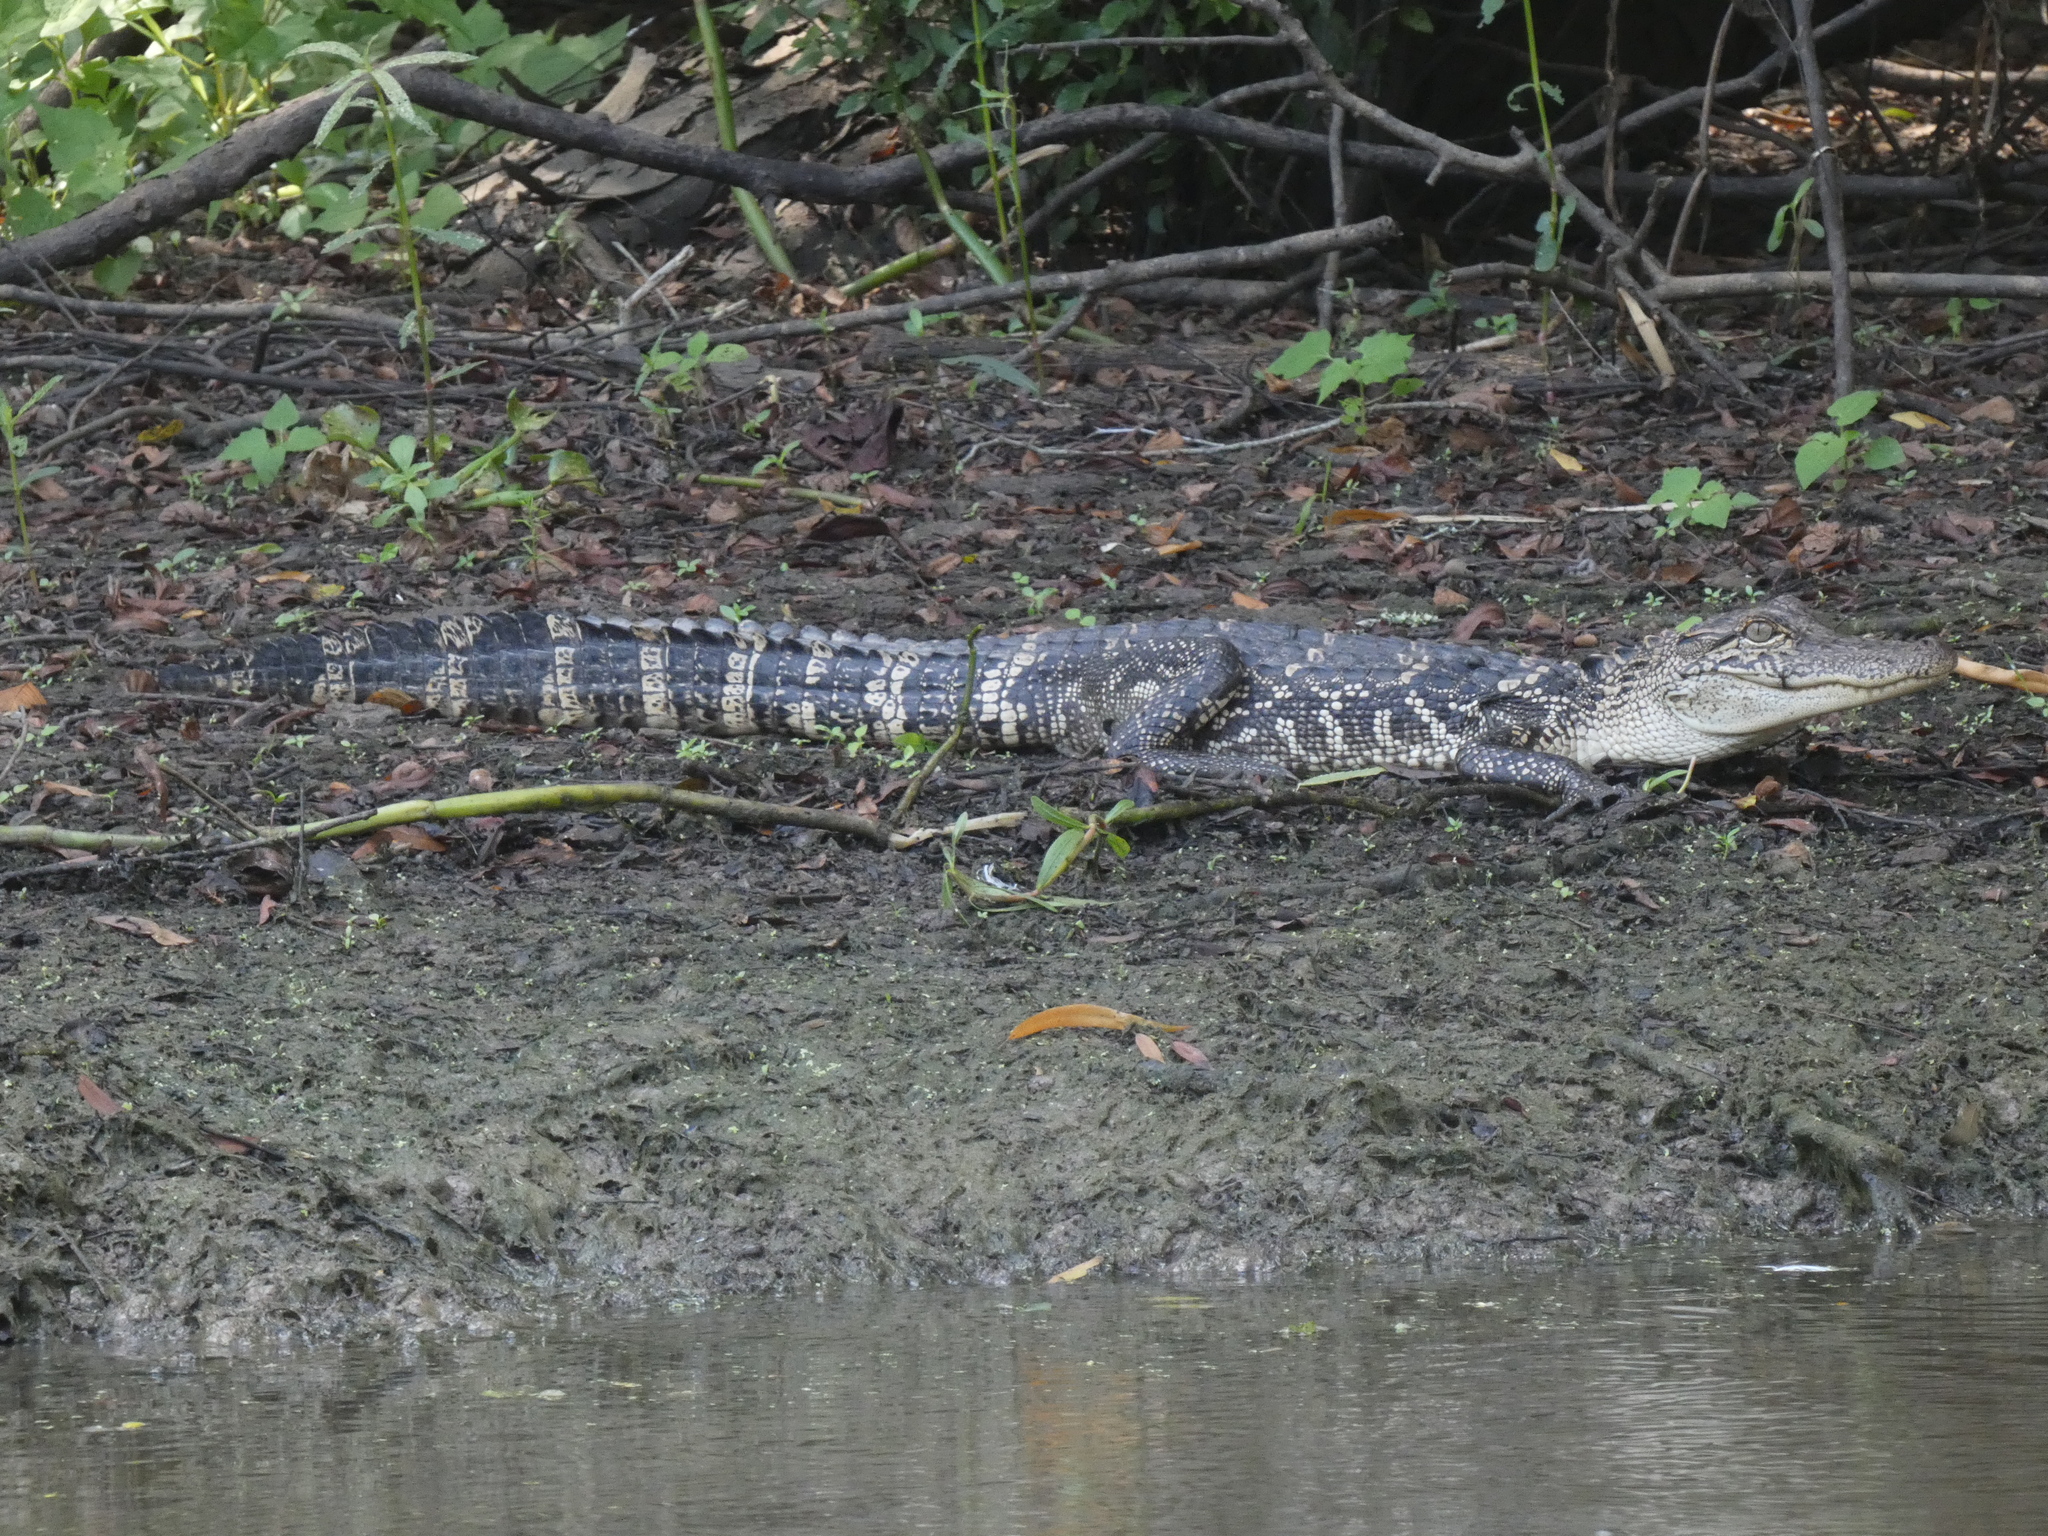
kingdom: Animalia
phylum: Chordata
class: Crocodylia
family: Alligatoridae
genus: Alligator
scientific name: Alligator mississippiensis
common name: American alligator
